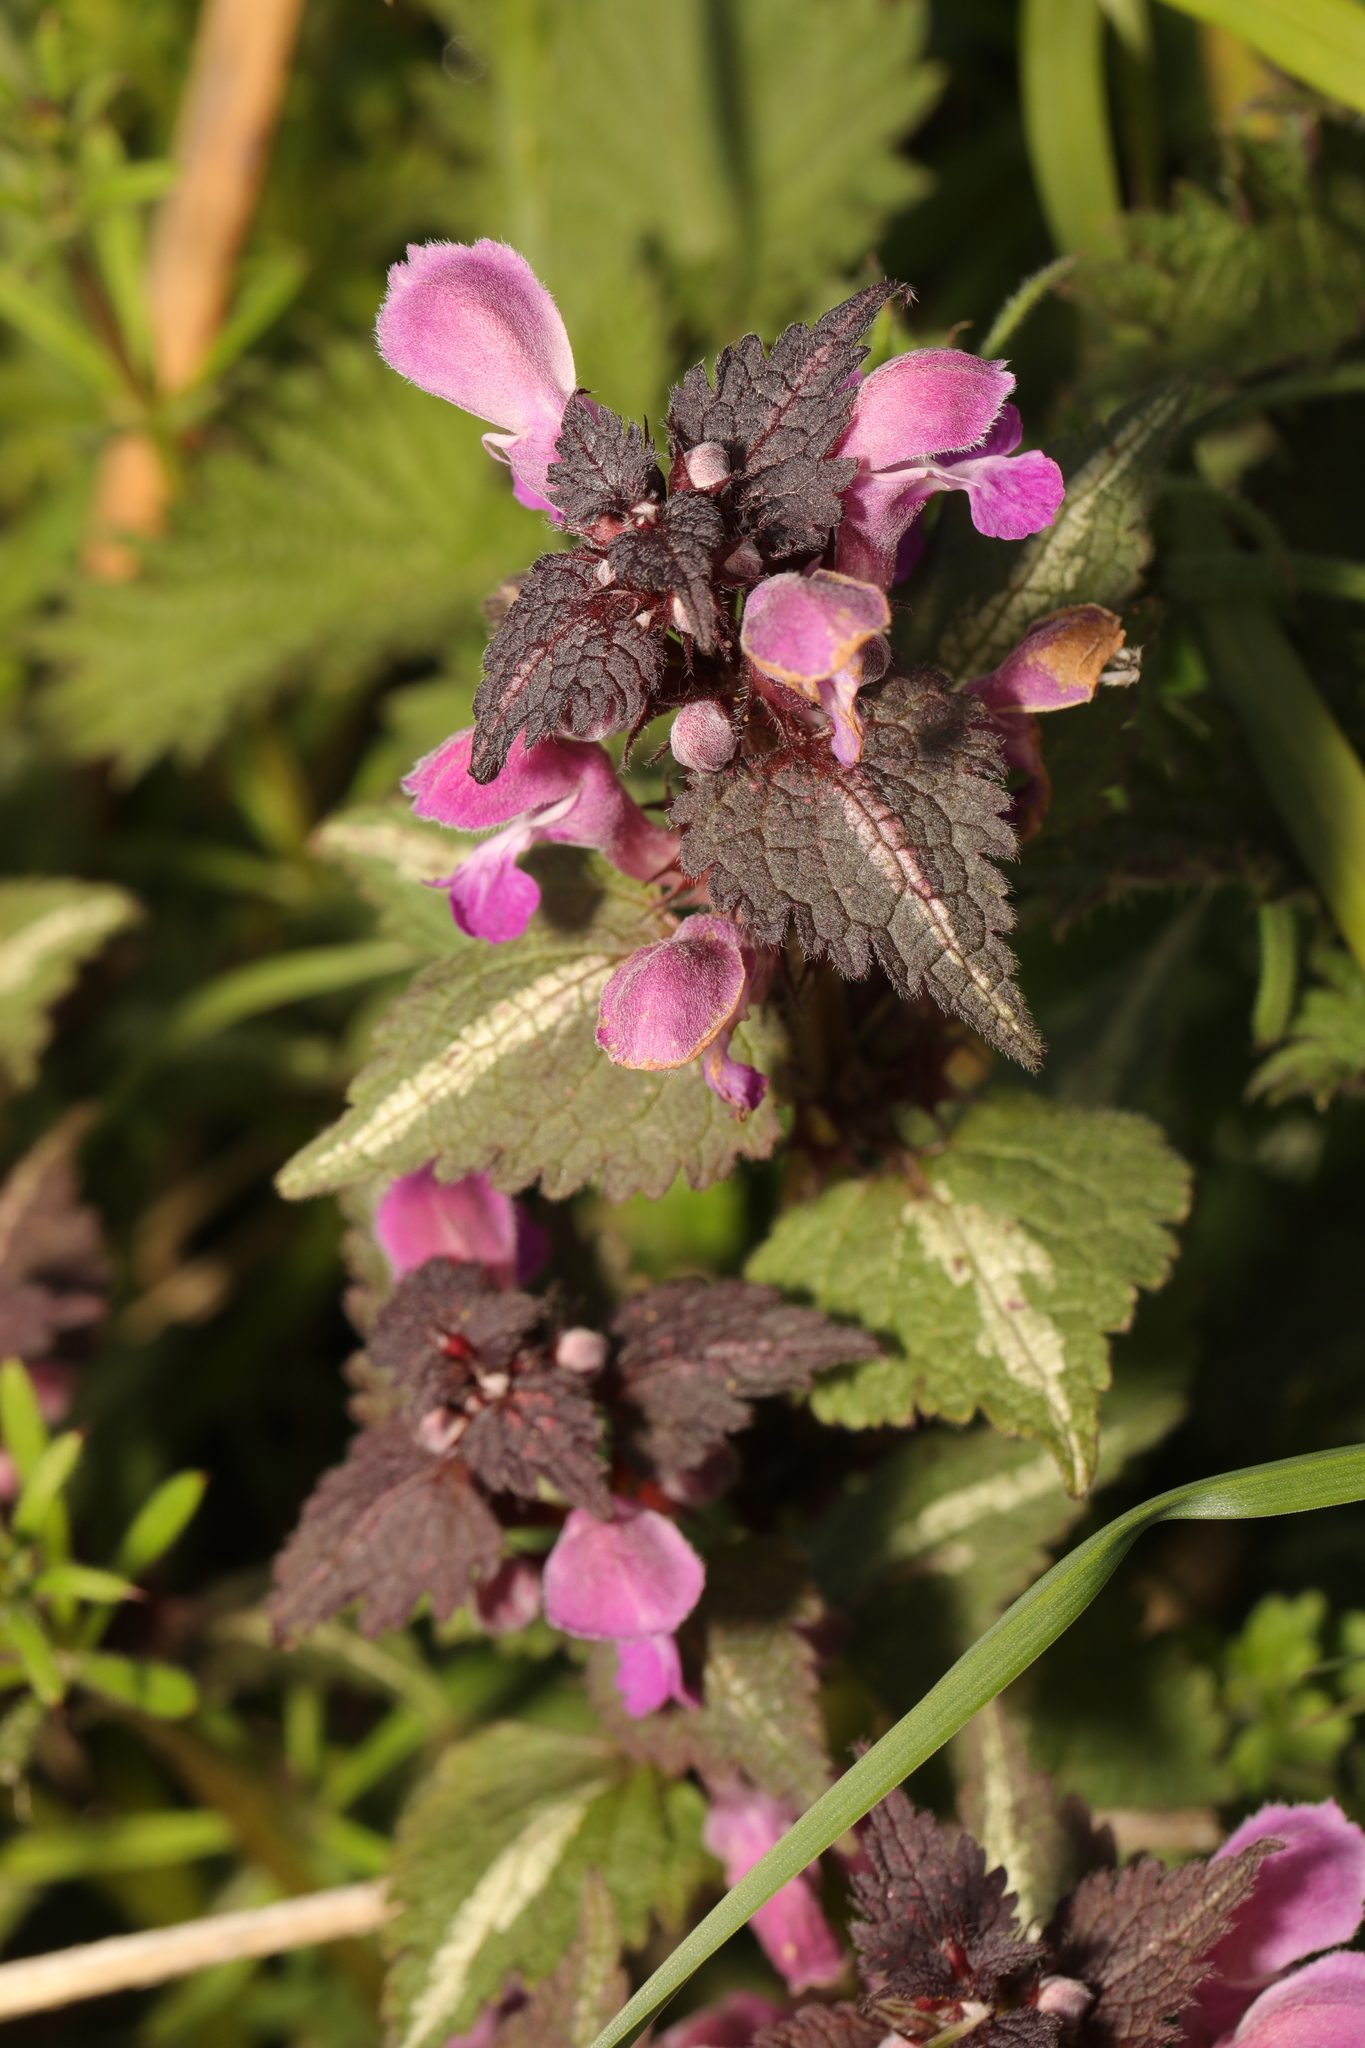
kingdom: Plantae
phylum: Tracheophyta
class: Magnoliopsida
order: Lamiales
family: Lamiaceae
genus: Lamium
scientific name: Lamium maculatum
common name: Spotted dead-nettle
